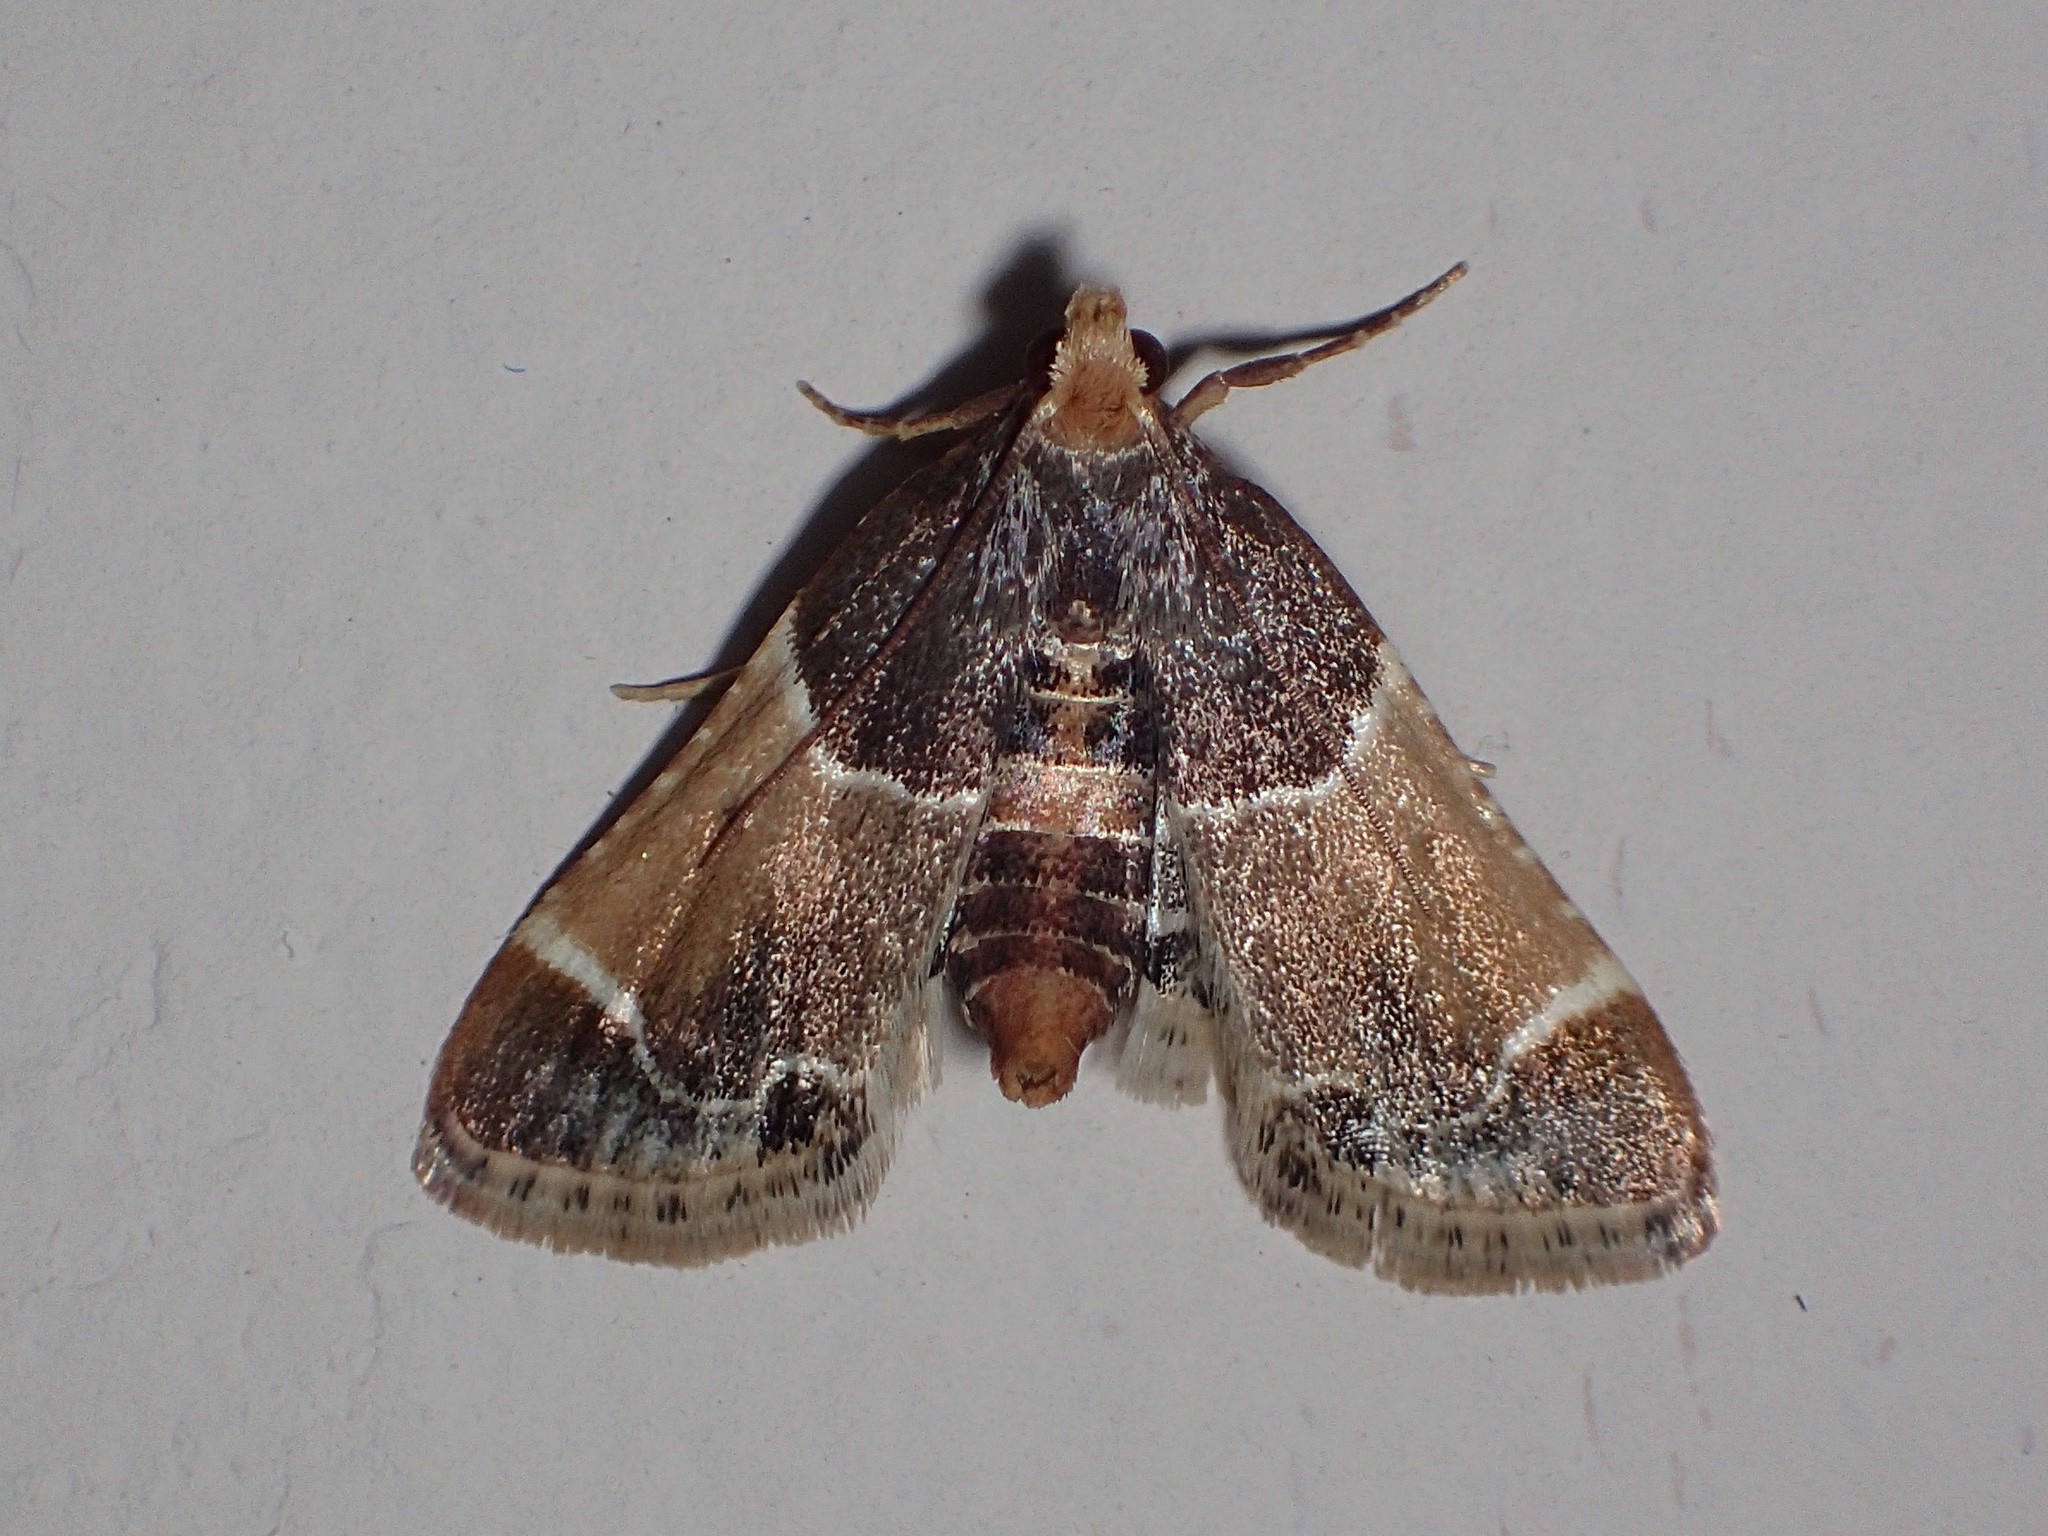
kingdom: Animalia
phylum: Arthropoda
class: Insecta
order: Lepidoptera
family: Pyralidae
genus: Pyralis
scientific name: Pyralis farinalis
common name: Meal moth
